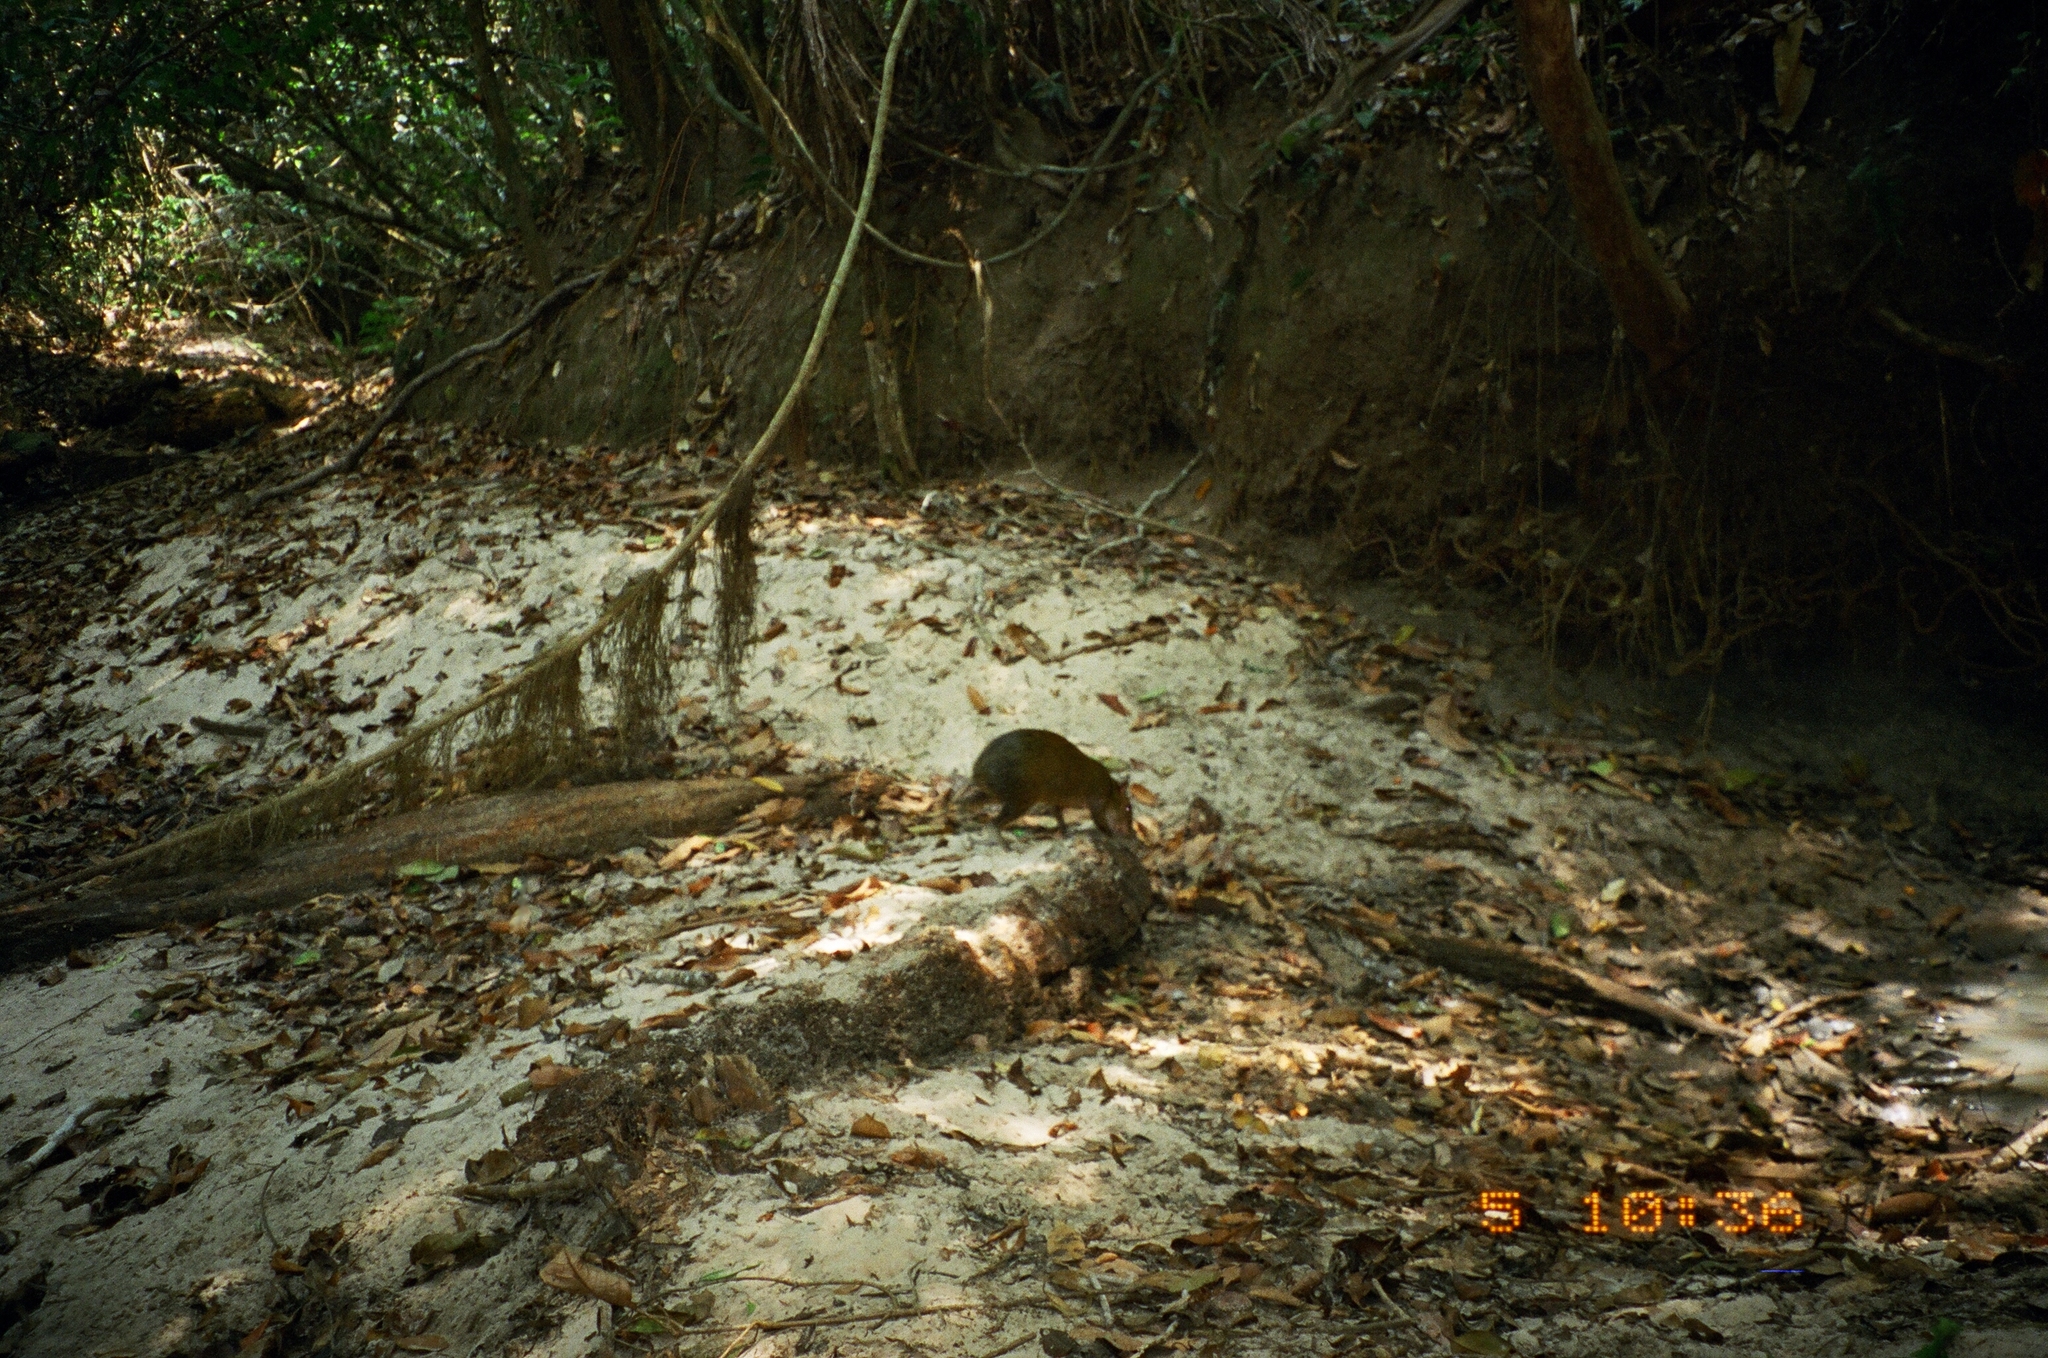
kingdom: Animalia
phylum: Chordata
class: Mammalia
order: Rodentia
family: Dasyproctidae
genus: Dasyprocta
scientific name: Dasyprocta azarae
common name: Azara's agouti
